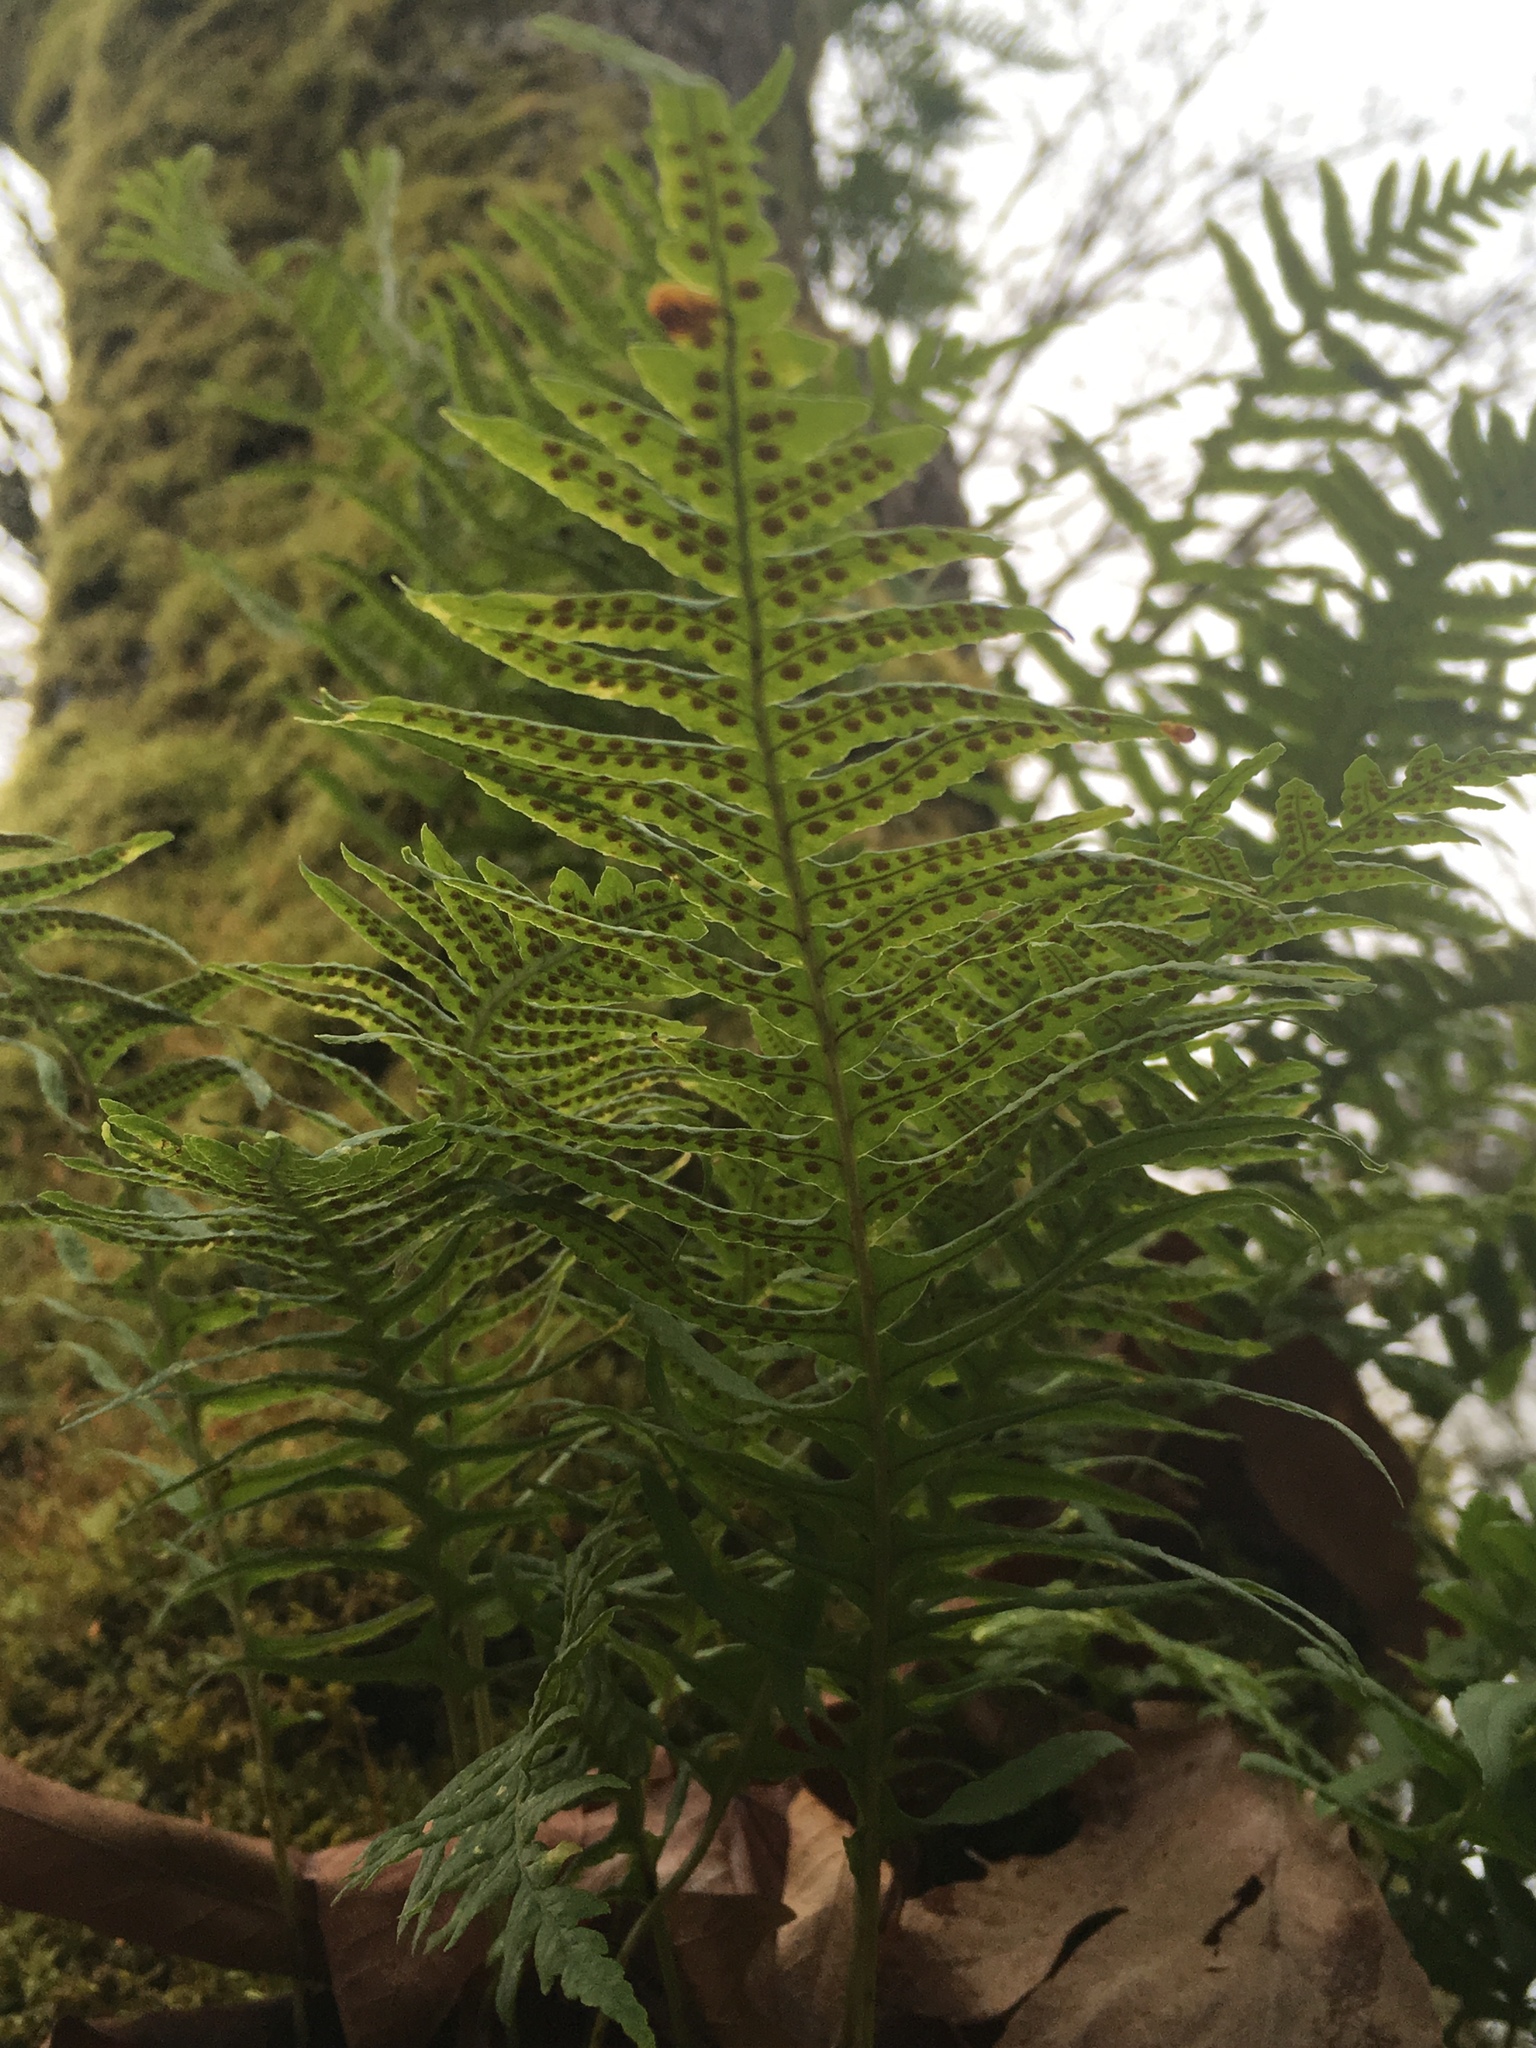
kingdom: Plantae
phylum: Tracheophyta
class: Polypodiopsida
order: Polypodiales
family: Polypodiaceae
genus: Polypodium
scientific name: Polypodium glycyrrhiza
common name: Licorice fern
